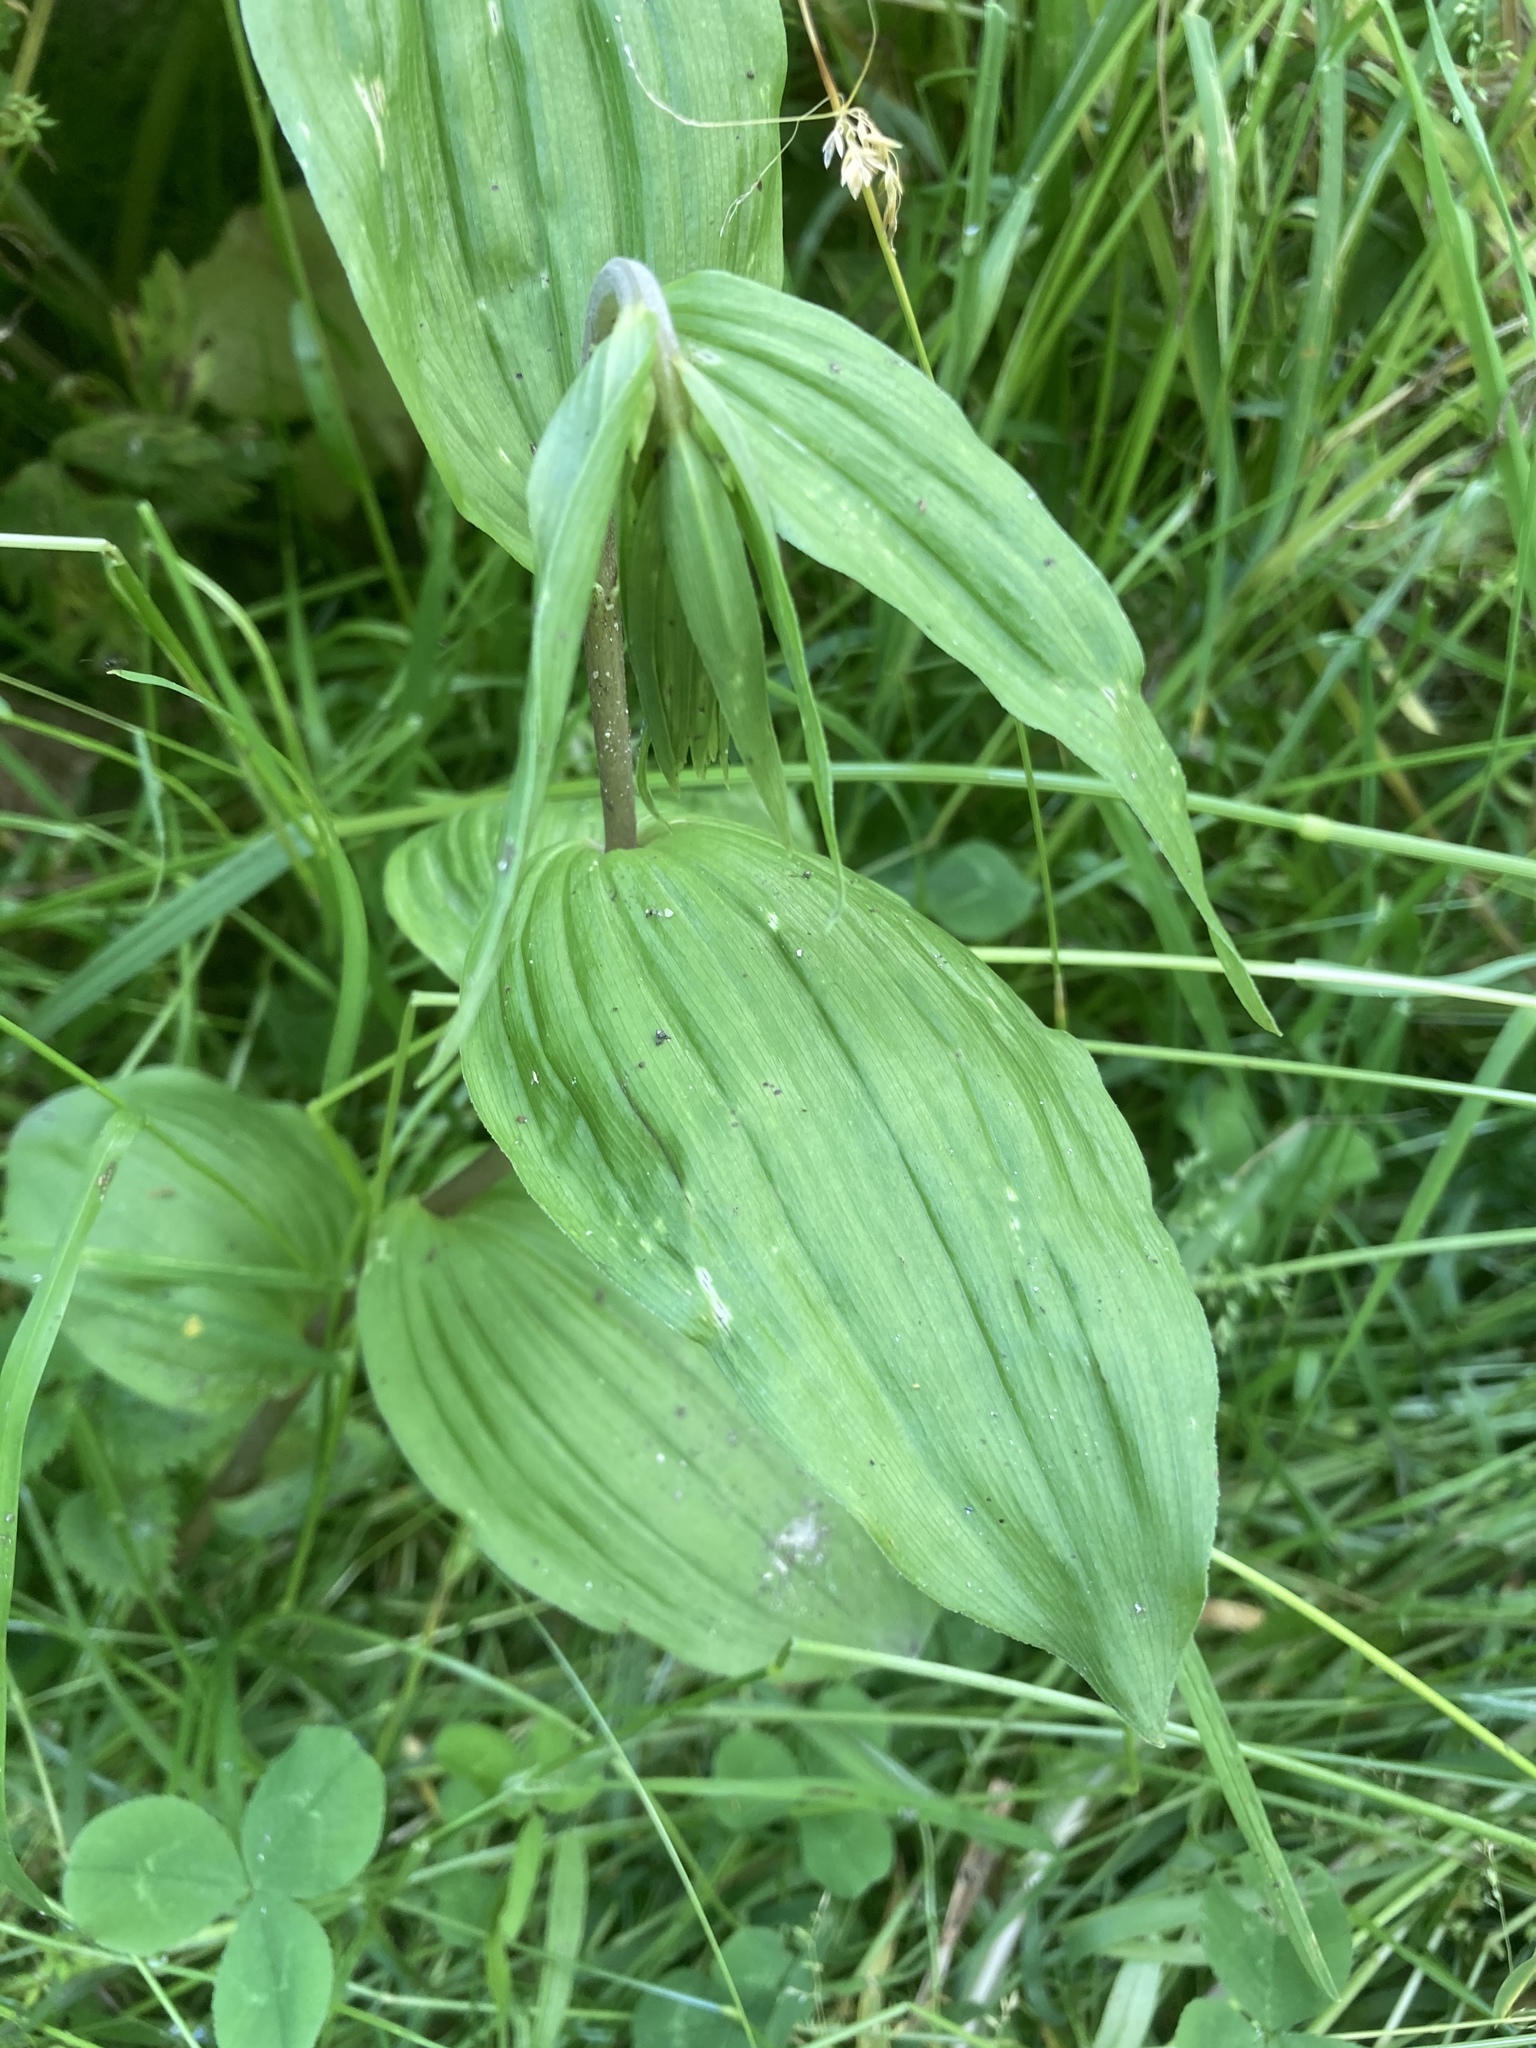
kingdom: Plantae
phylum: Tracheophyta
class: Liliopsida
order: Asparagales
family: Orchidaceae
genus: Epipactis
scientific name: Epipactis helleborine
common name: Broad-leaved helleborine
